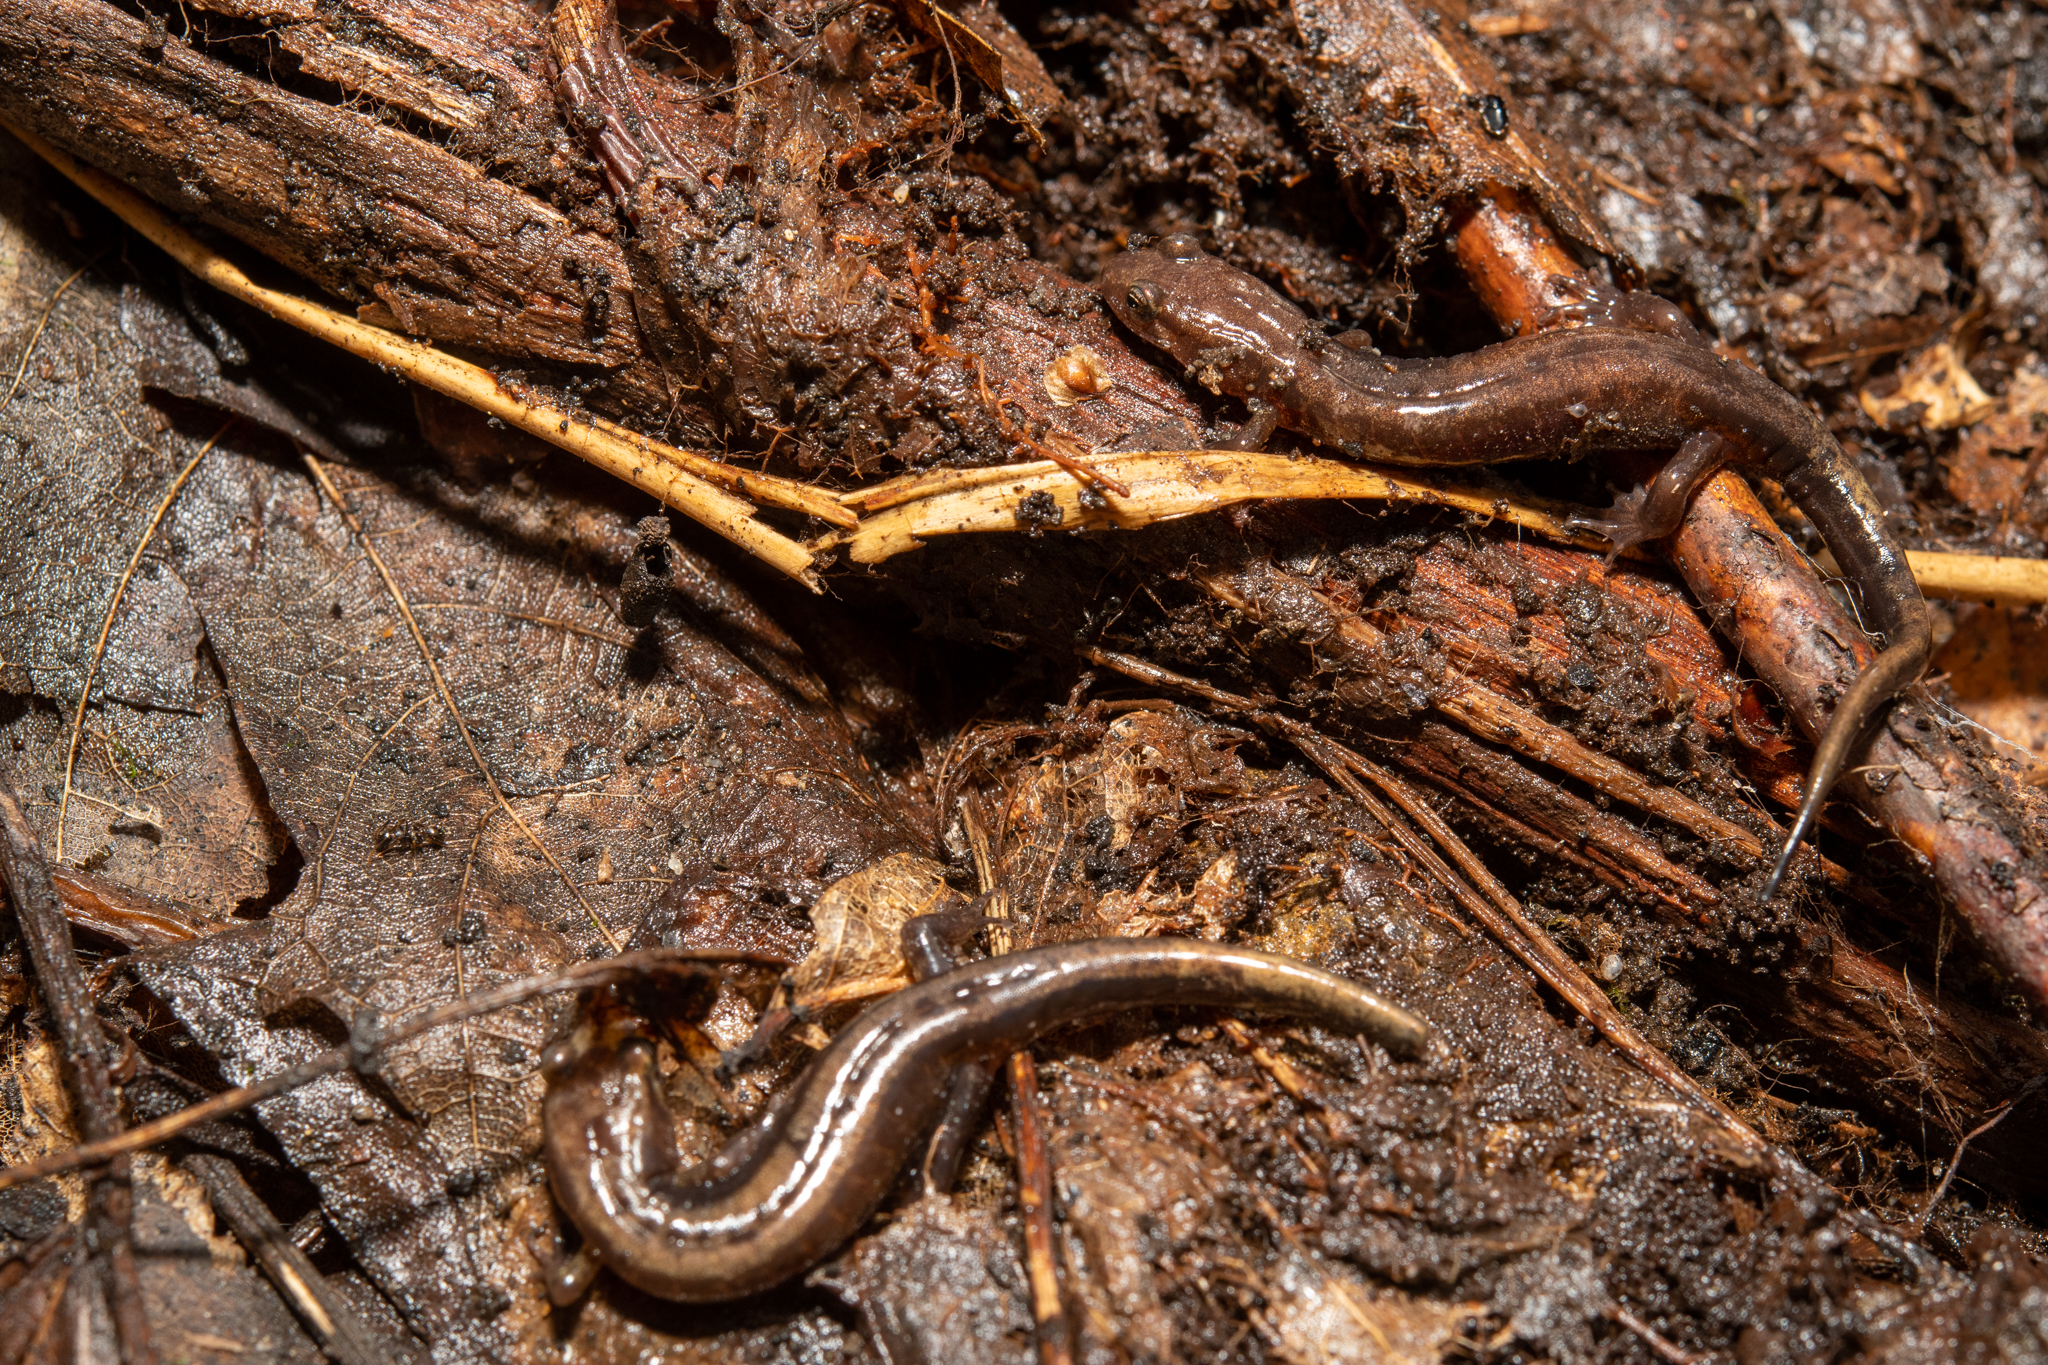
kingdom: Animalia
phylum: Chordata
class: Amphibia
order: Caudata
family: Plethodontidae
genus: Desmognathus
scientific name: Desmognathus ochrophaeus
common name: Allegheny mountain dusky salamander
